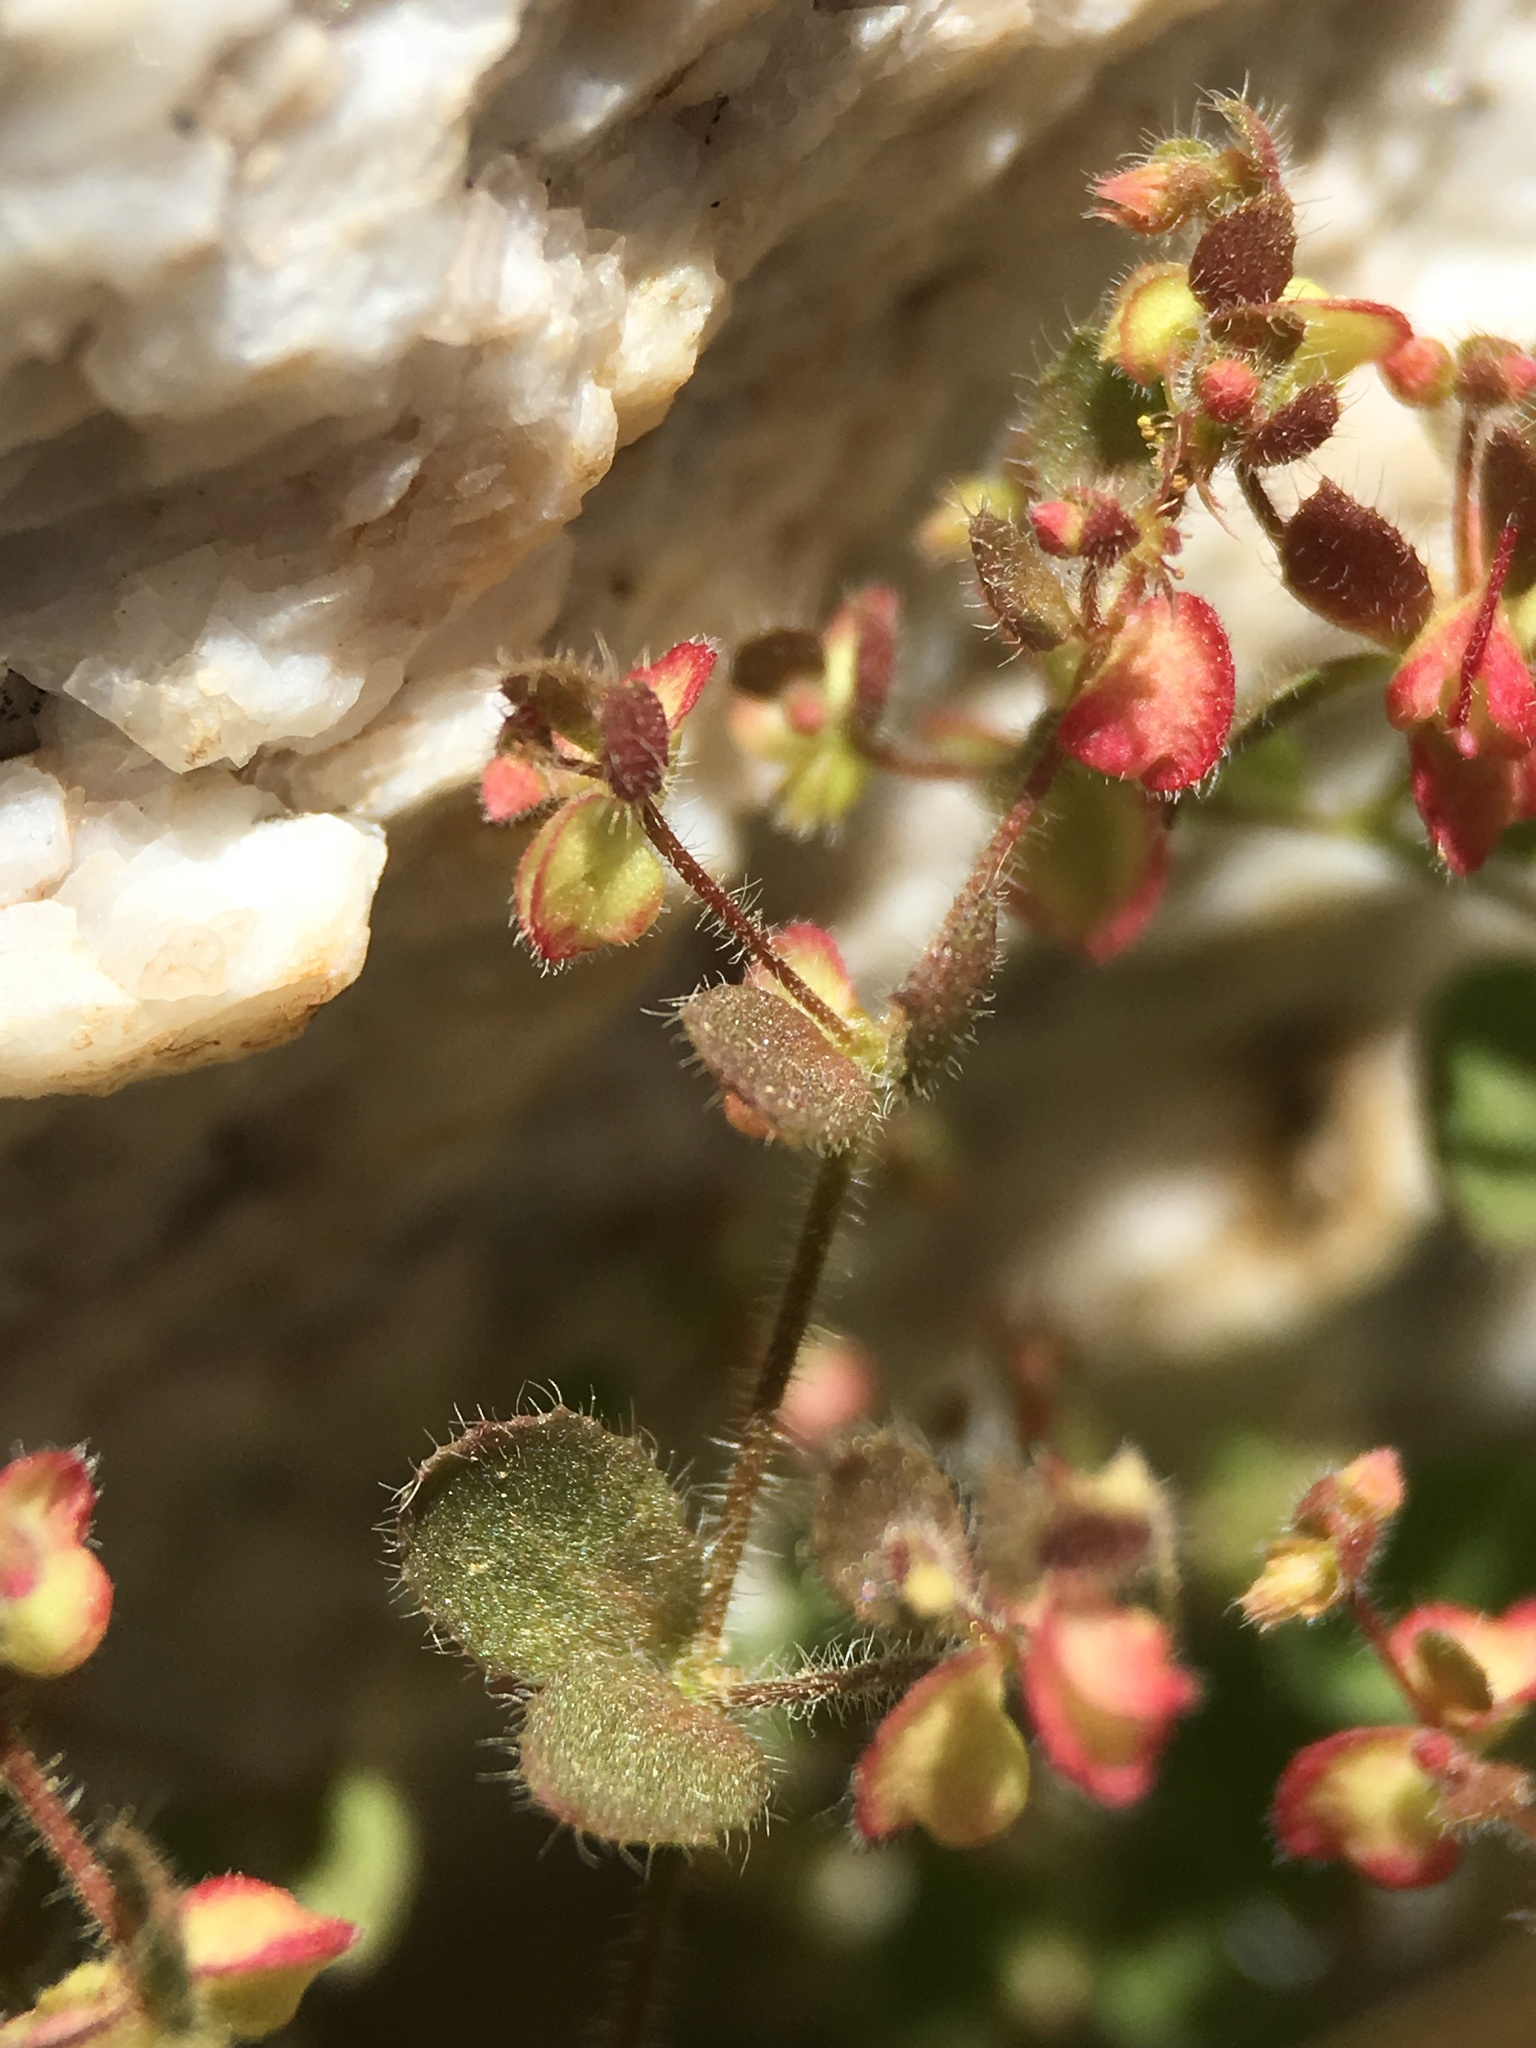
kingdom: Plantae
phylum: Tracheophyta
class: Magnoliopsida
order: Caryophyllales
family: Polygonaceae
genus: Pterostegia
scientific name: Pterostegia drymarioides
